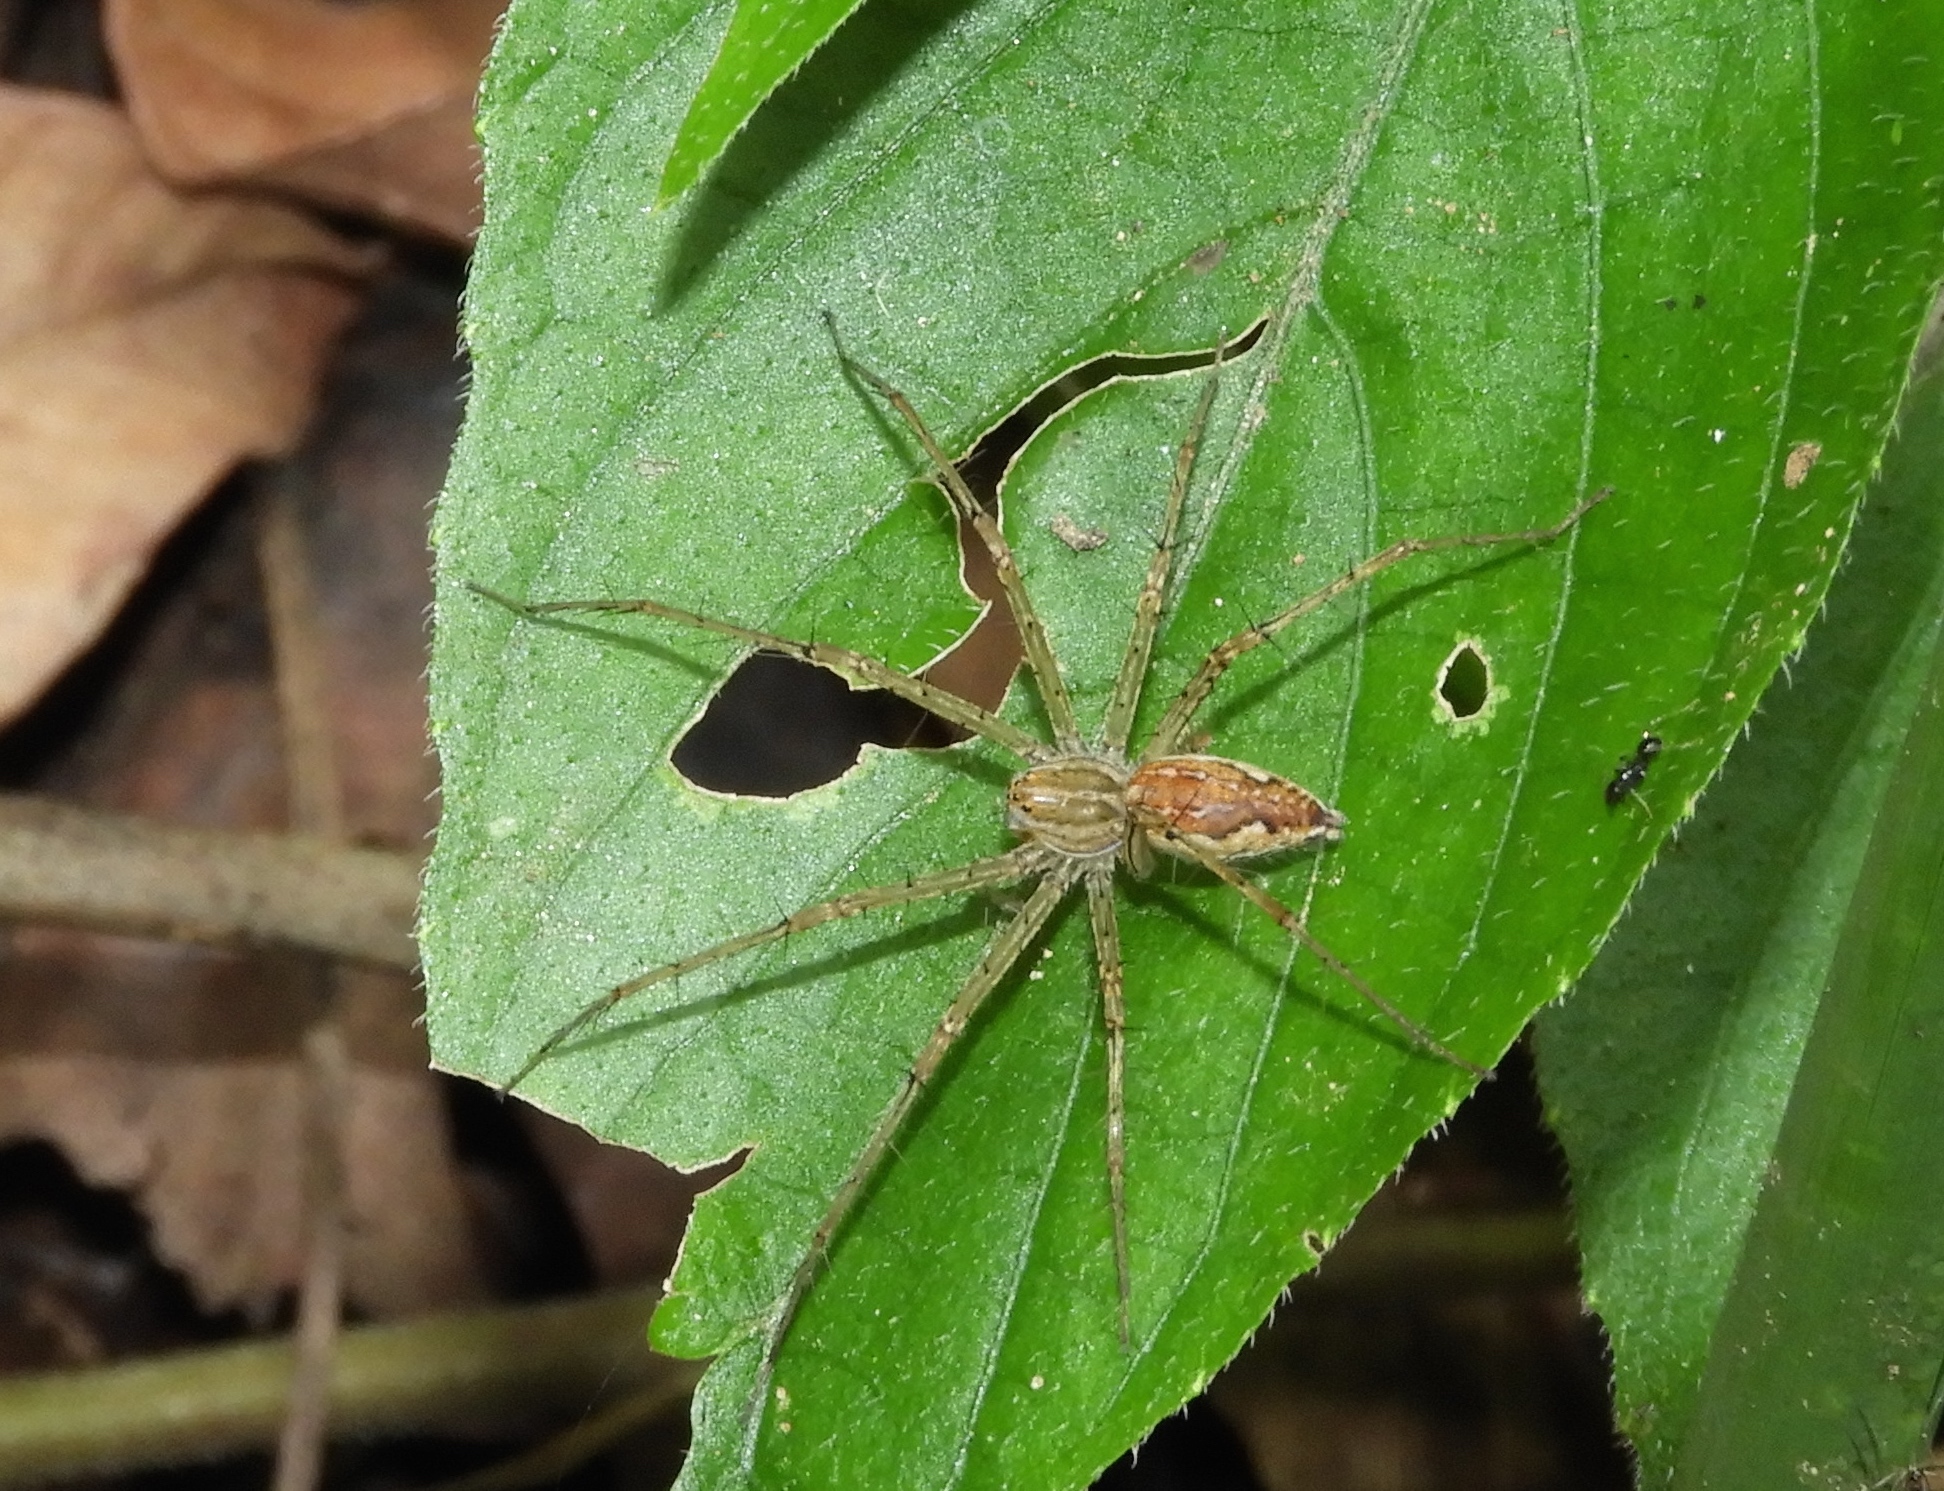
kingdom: Animalia
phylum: Arthropoda
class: Arachnida
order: Araneae
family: Pisauridae
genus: Tinus
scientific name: Tinus
